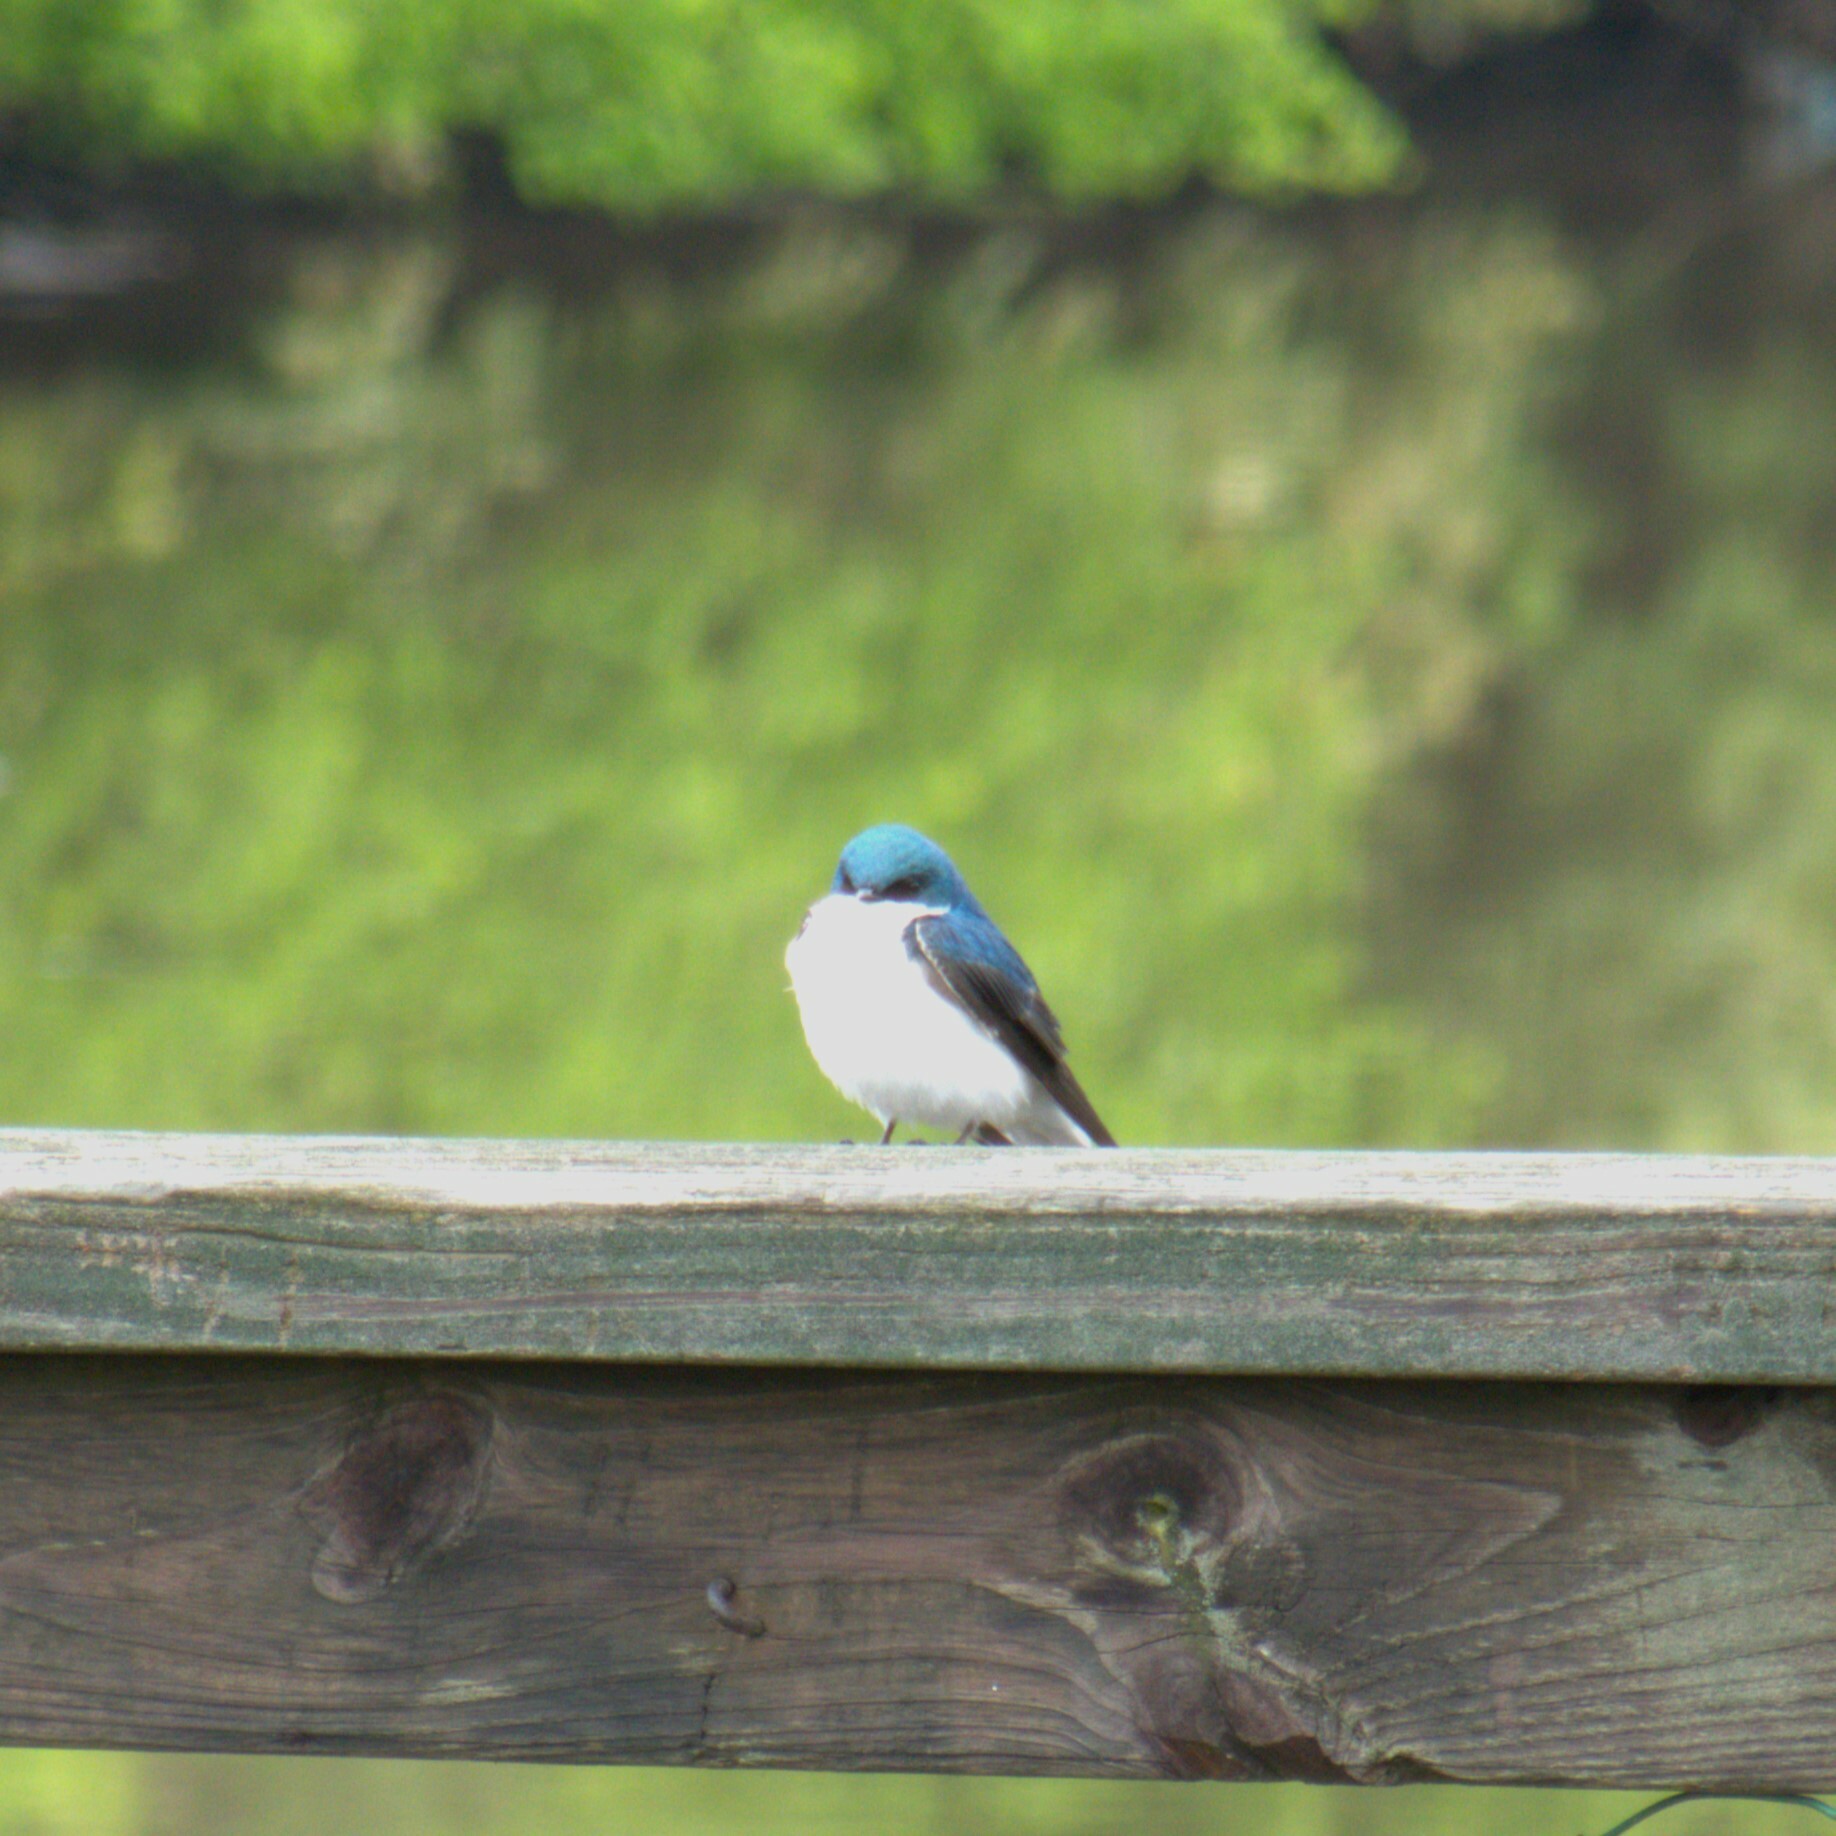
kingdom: Animalia
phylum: Chordata
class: Aves
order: Passeriformes
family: Hirundinidae
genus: Tachycineta
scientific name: Tachycineta bicolor
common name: Tree swallow
